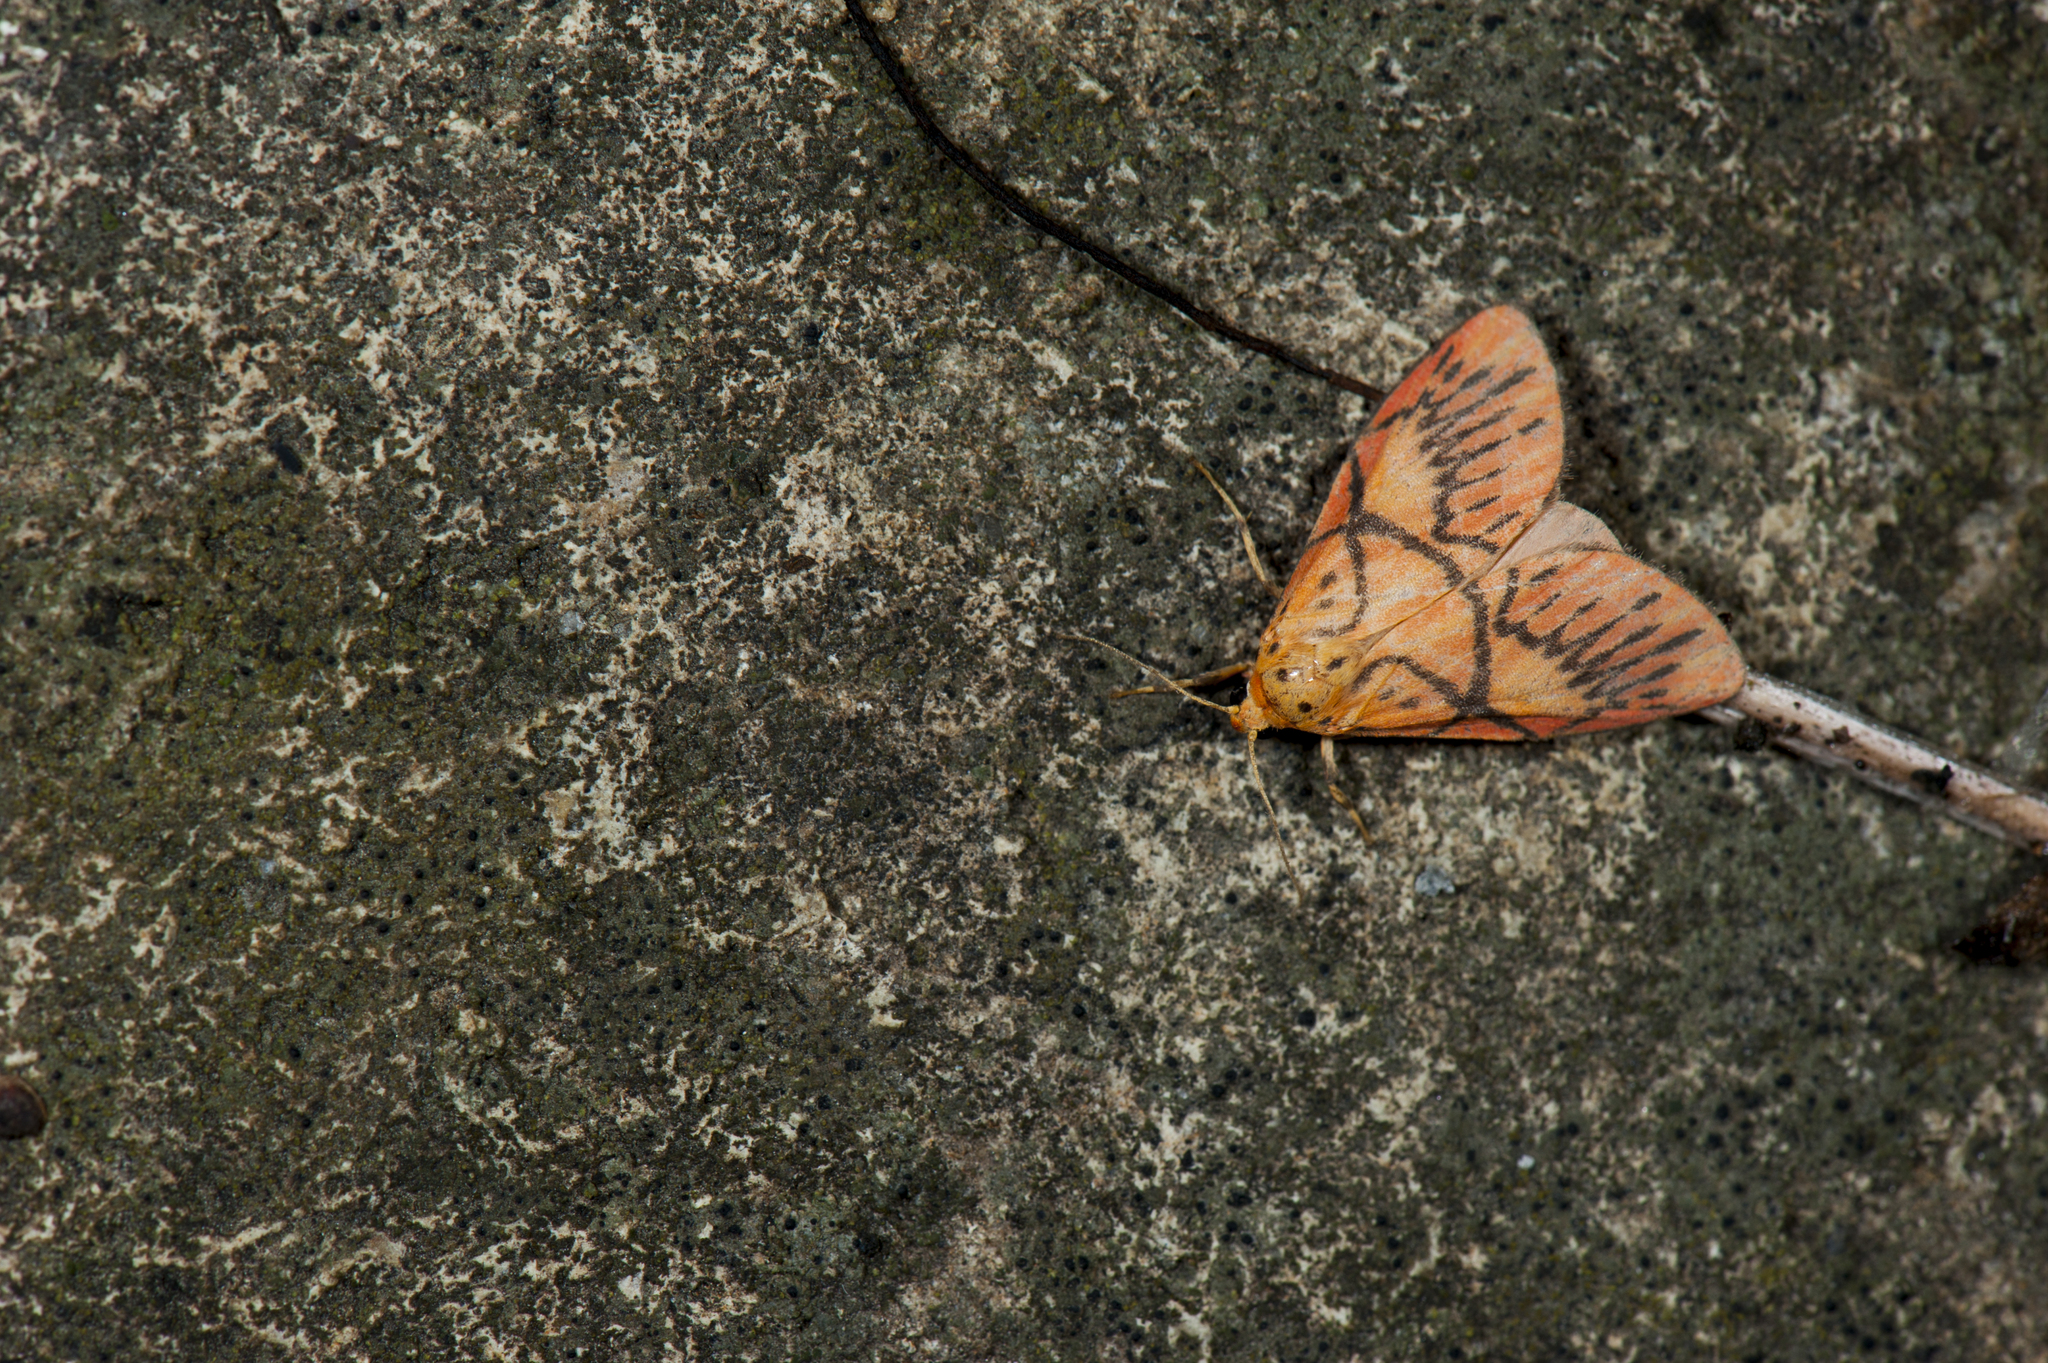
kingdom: Animalia
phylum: Arthropoda
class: Insecta
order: Lepidoptera
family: Erebidae
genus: Aberrasine
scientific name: Aberrasine shiou
